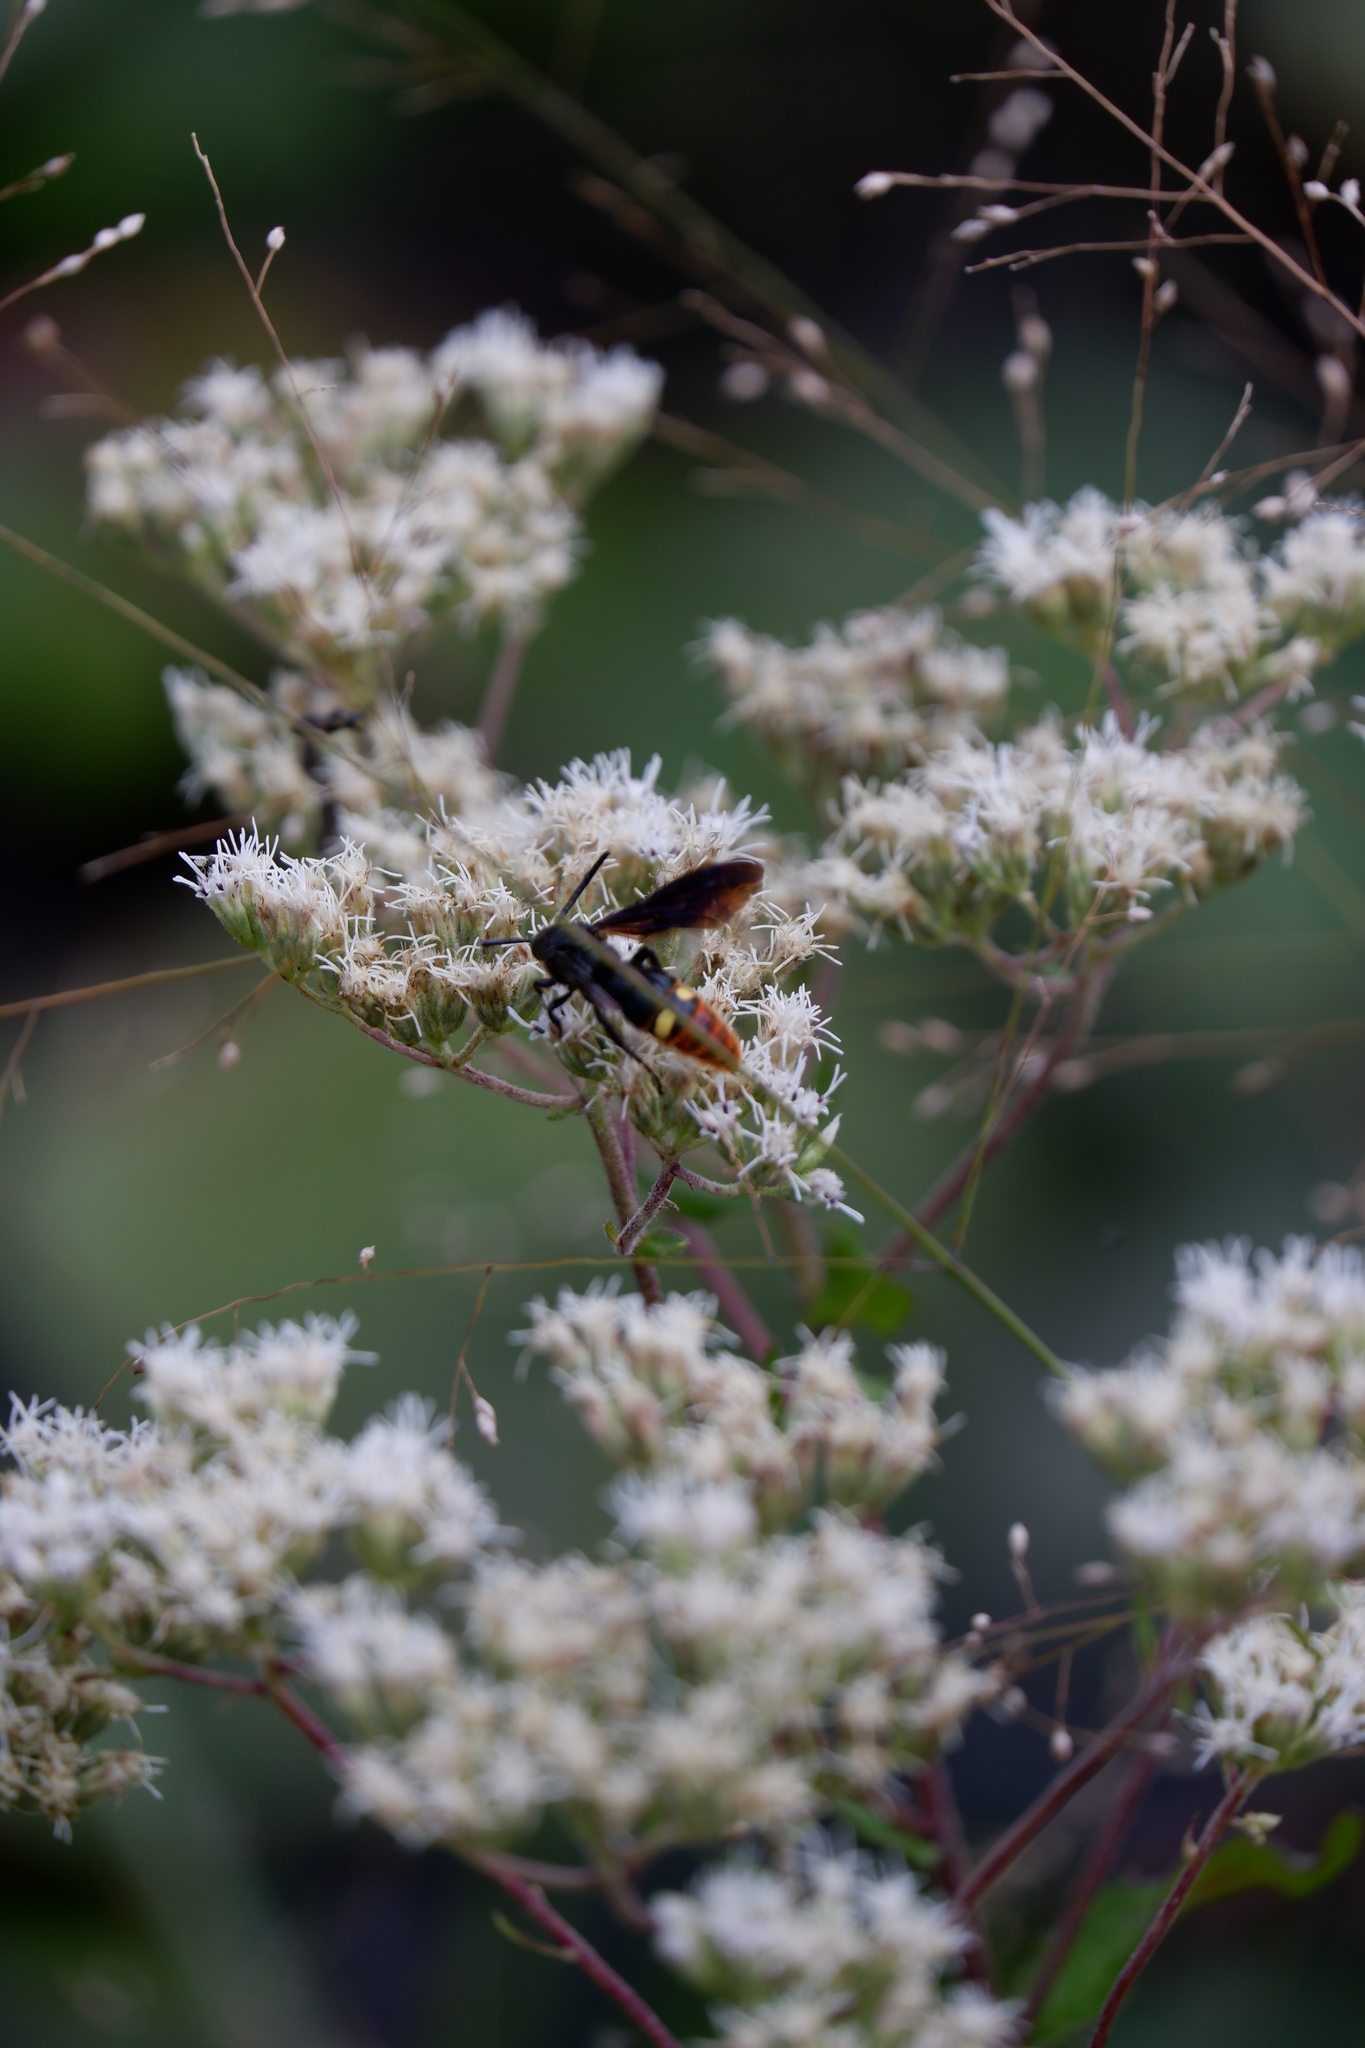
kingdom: Animalia
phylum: Arthropoda
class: Insecta
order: Hymenoptera
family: Scoliidae
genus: Scolia
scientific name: Scolia dubia
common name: Blue-winged scoliid wasp
